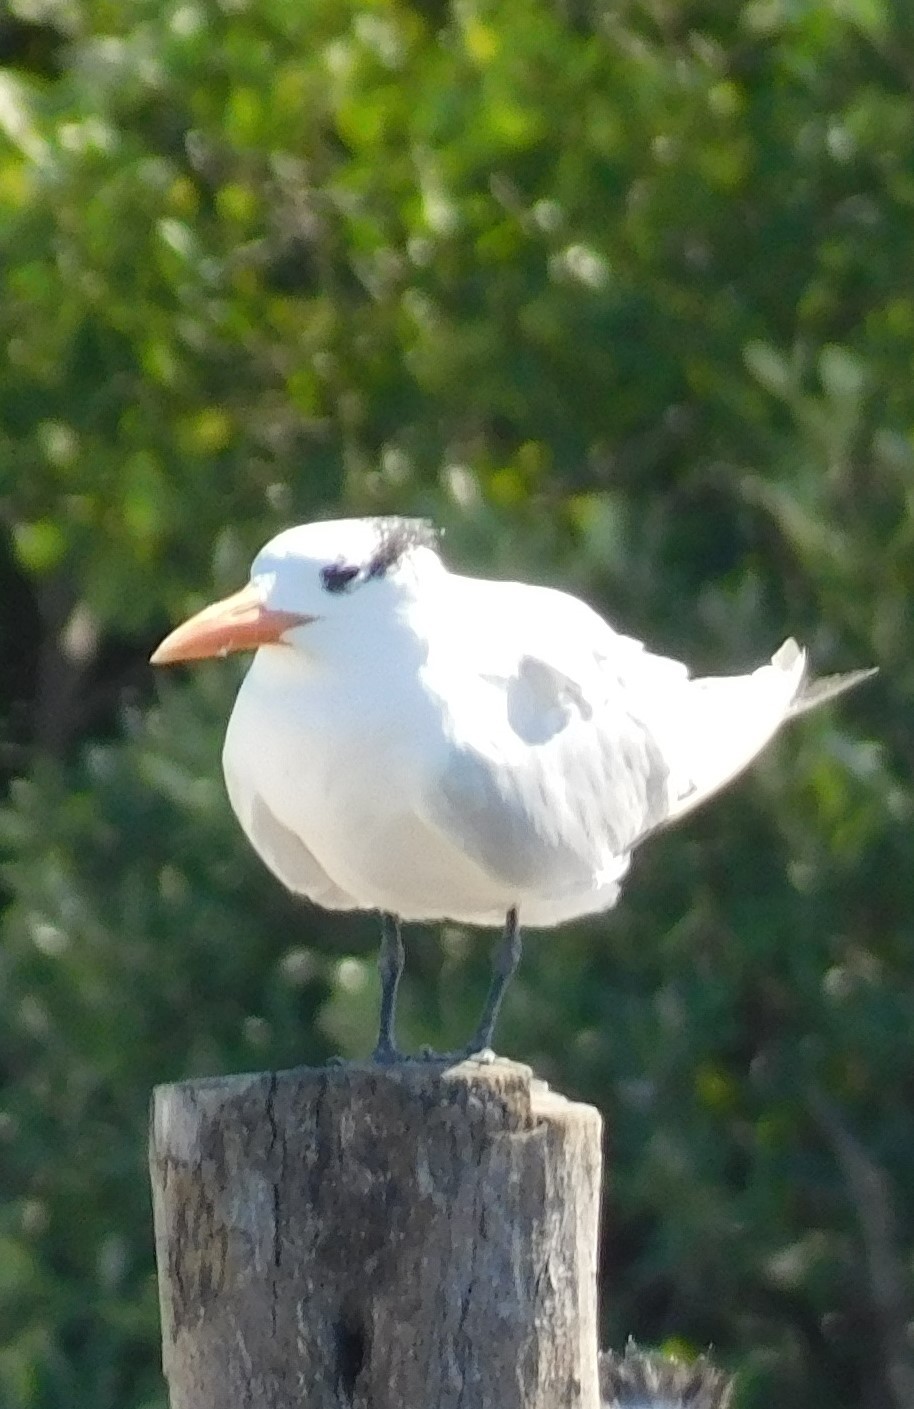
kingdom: Animalia
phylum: Chordata
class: Aves
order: Charadriiformes
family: Laridae
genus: Thalasseus
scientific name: Thalasseus maximus
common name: Royal tern
